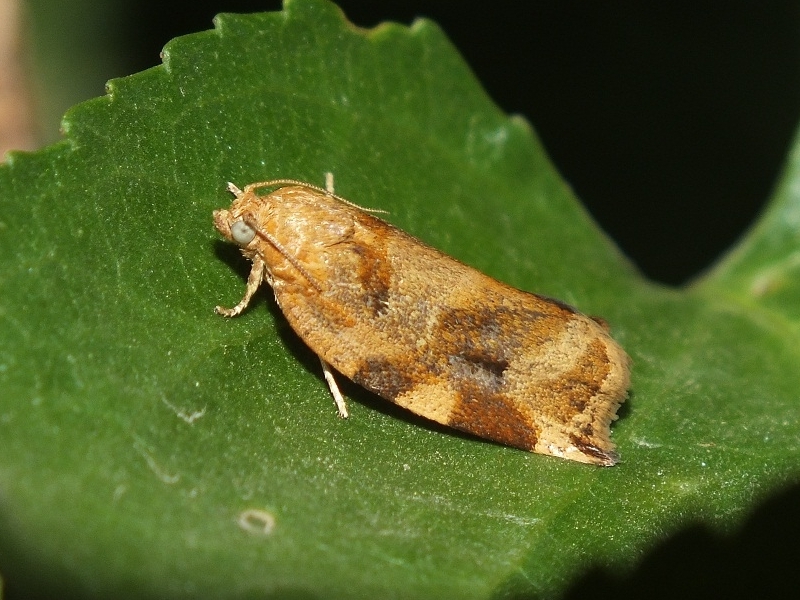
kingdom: Animalia
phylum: Arthropoda
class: Insecta
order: Lepidoptera
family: Tortricidae
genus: Archips
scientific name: Archips xylosteana
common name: Variegated golden tortrix
